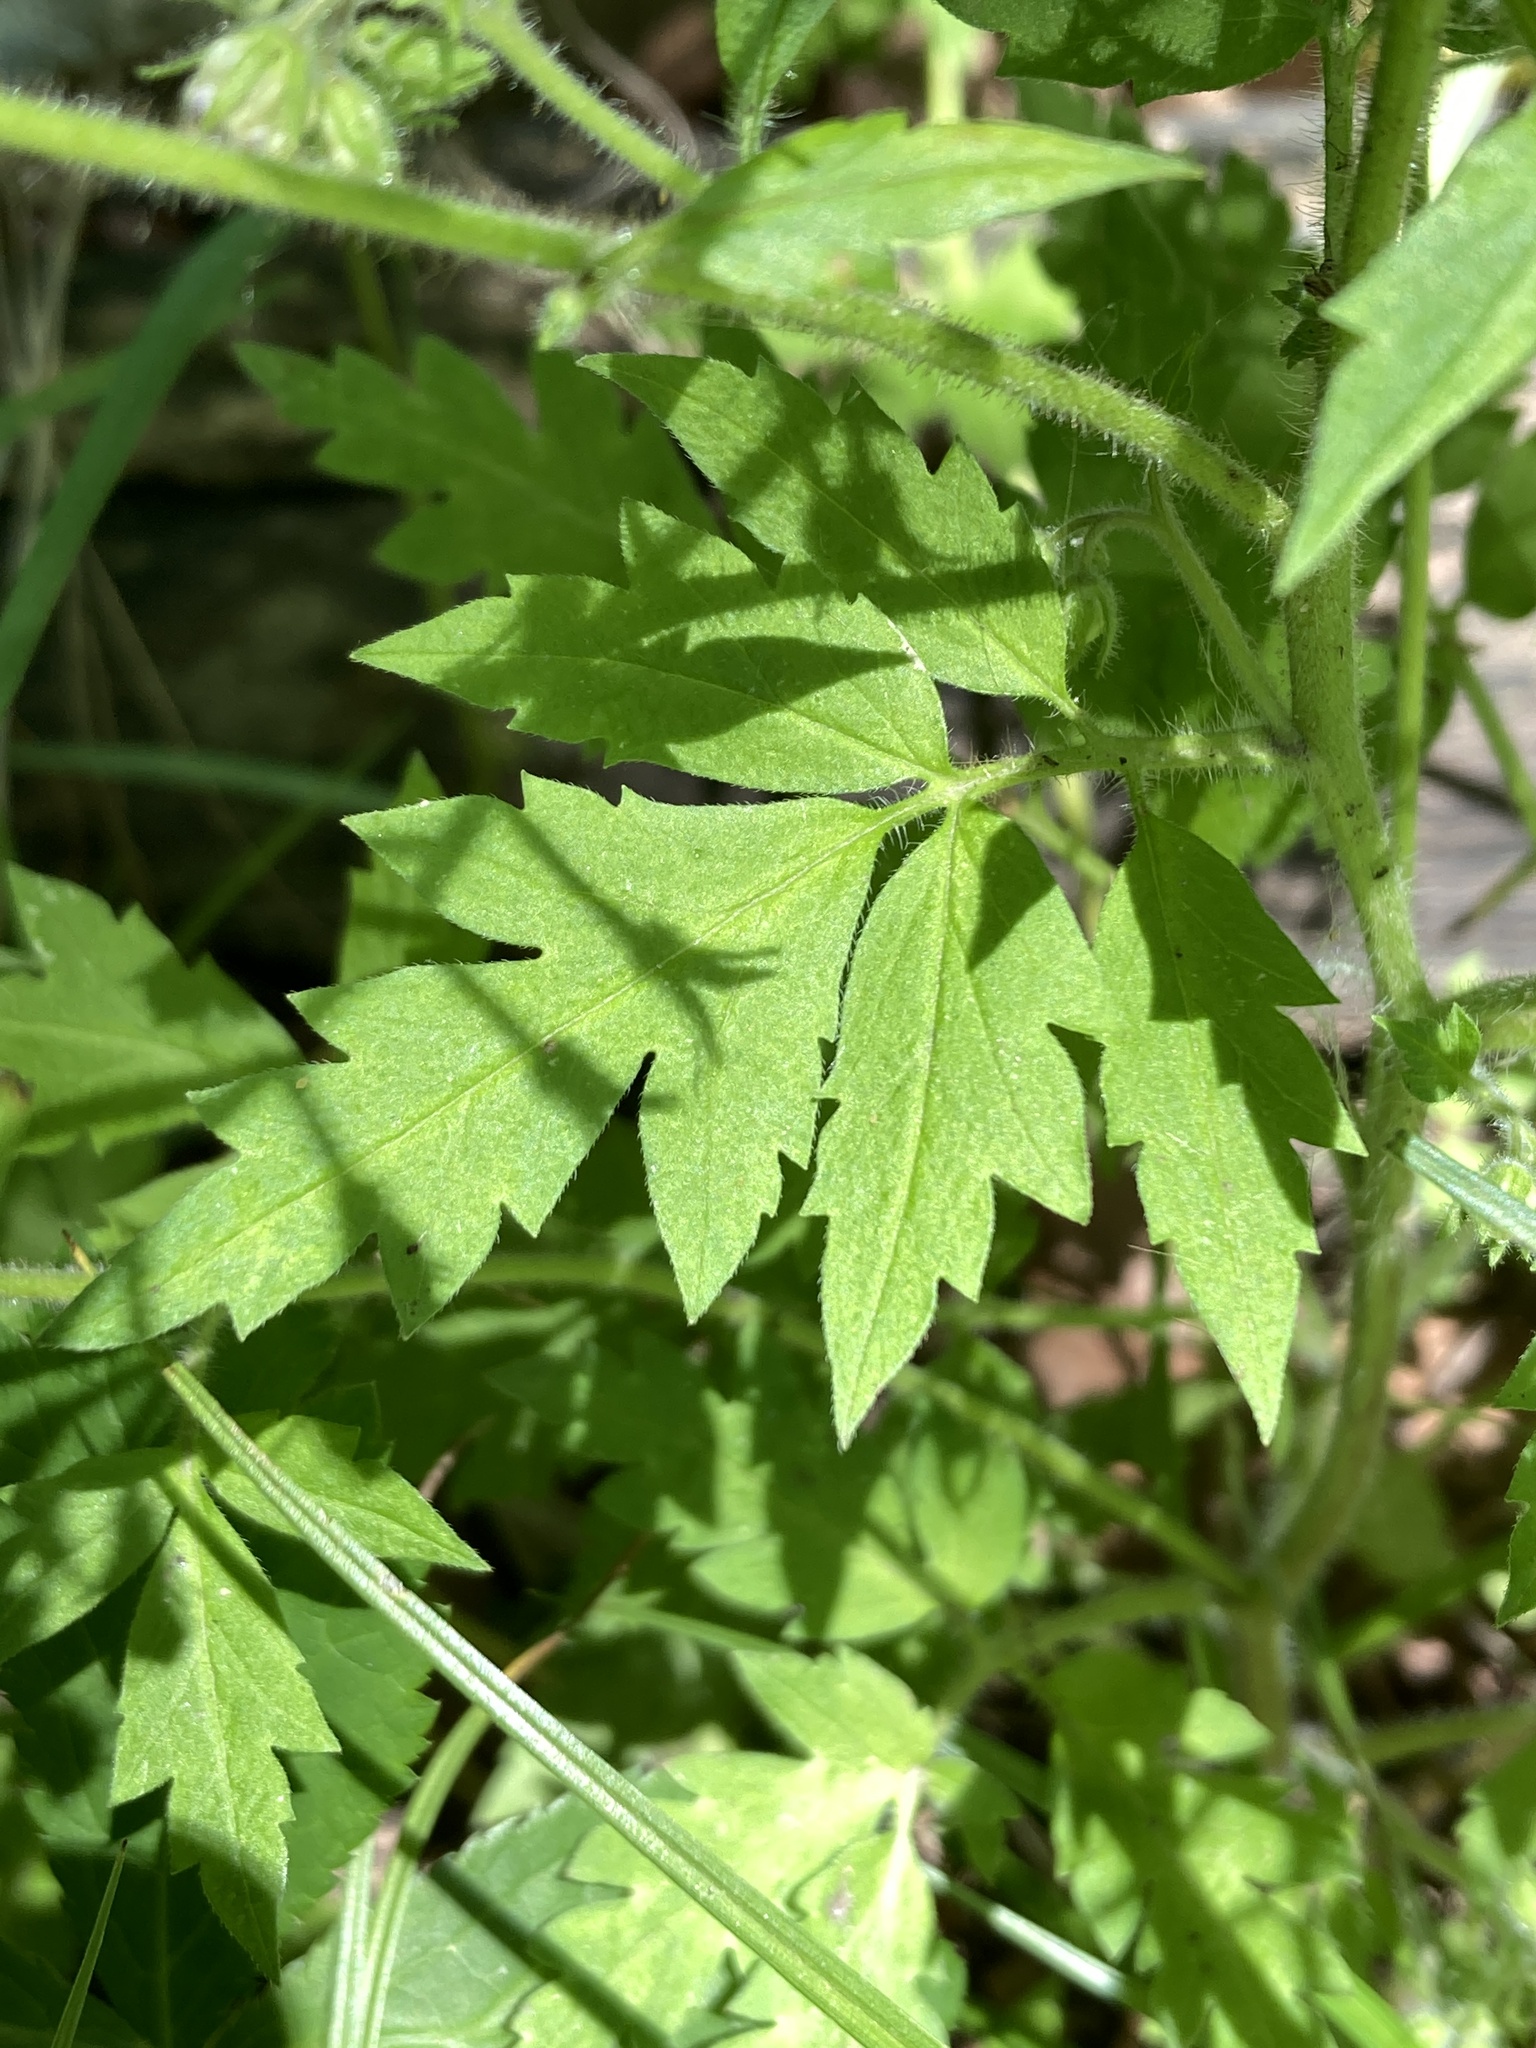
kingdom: Plantae
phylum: Tracheophyta
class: Magnoliopsida
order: Boraginales
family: Hydrophyllaceae
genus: Phacelia
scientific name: Phacelia bipinnatifida
